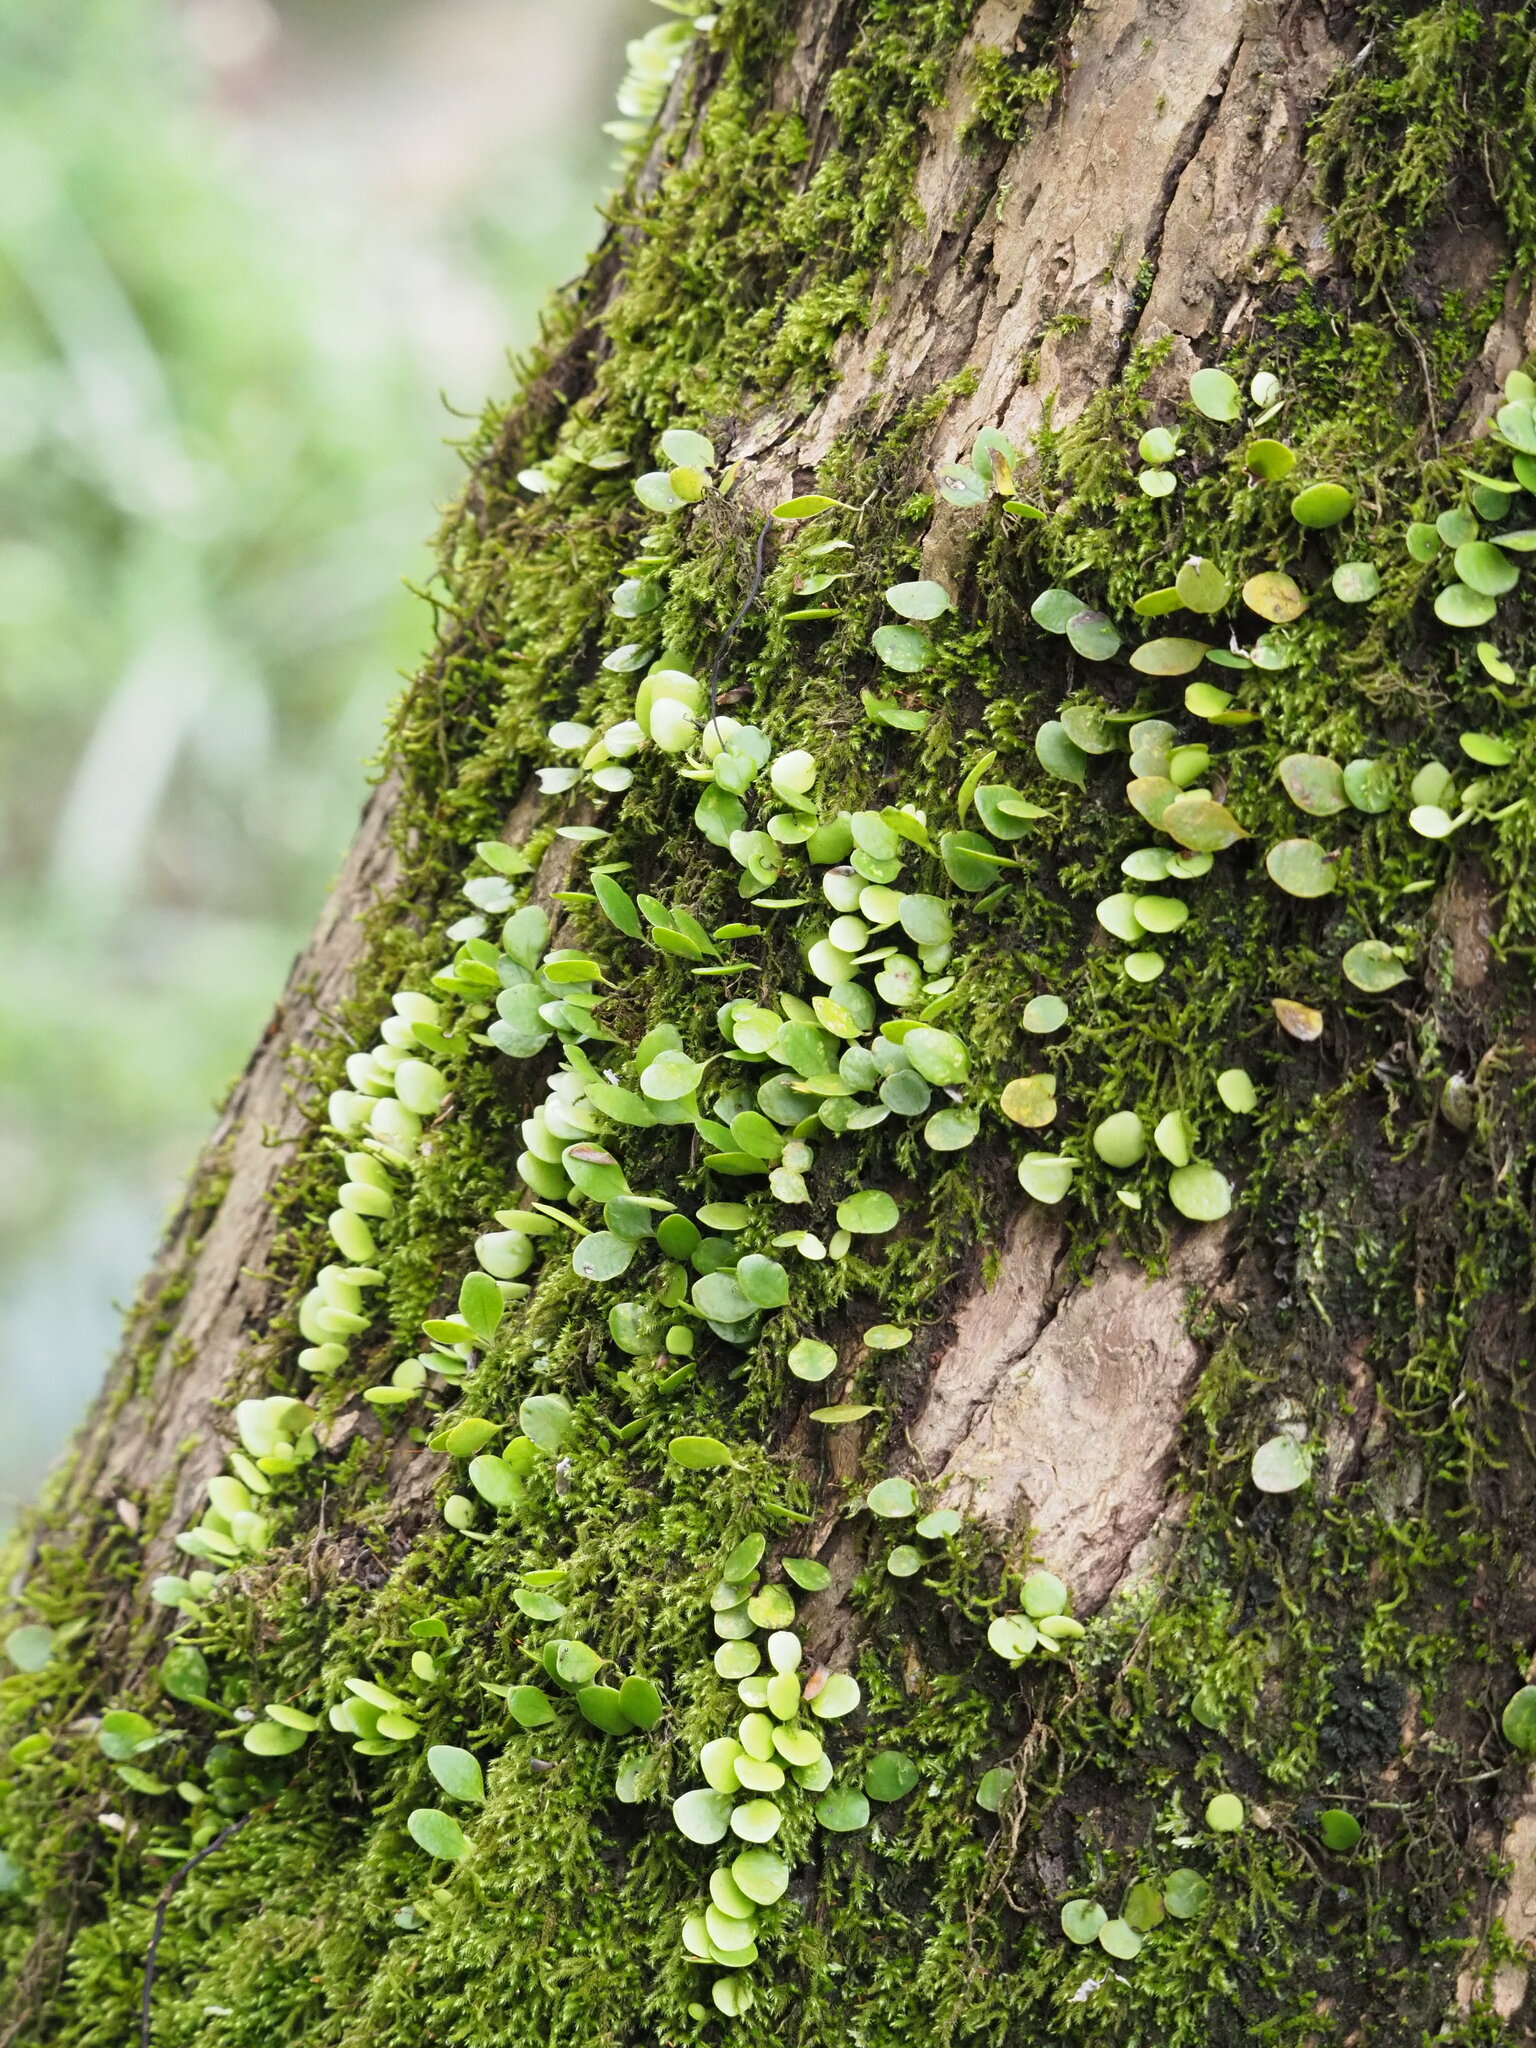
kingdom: Plantae
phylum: Tracheophyta
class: Polypodiopsida
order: Polypodiales
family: Polypodiaceae
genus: Lepisorus
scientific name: Lepisorus microphyllus
